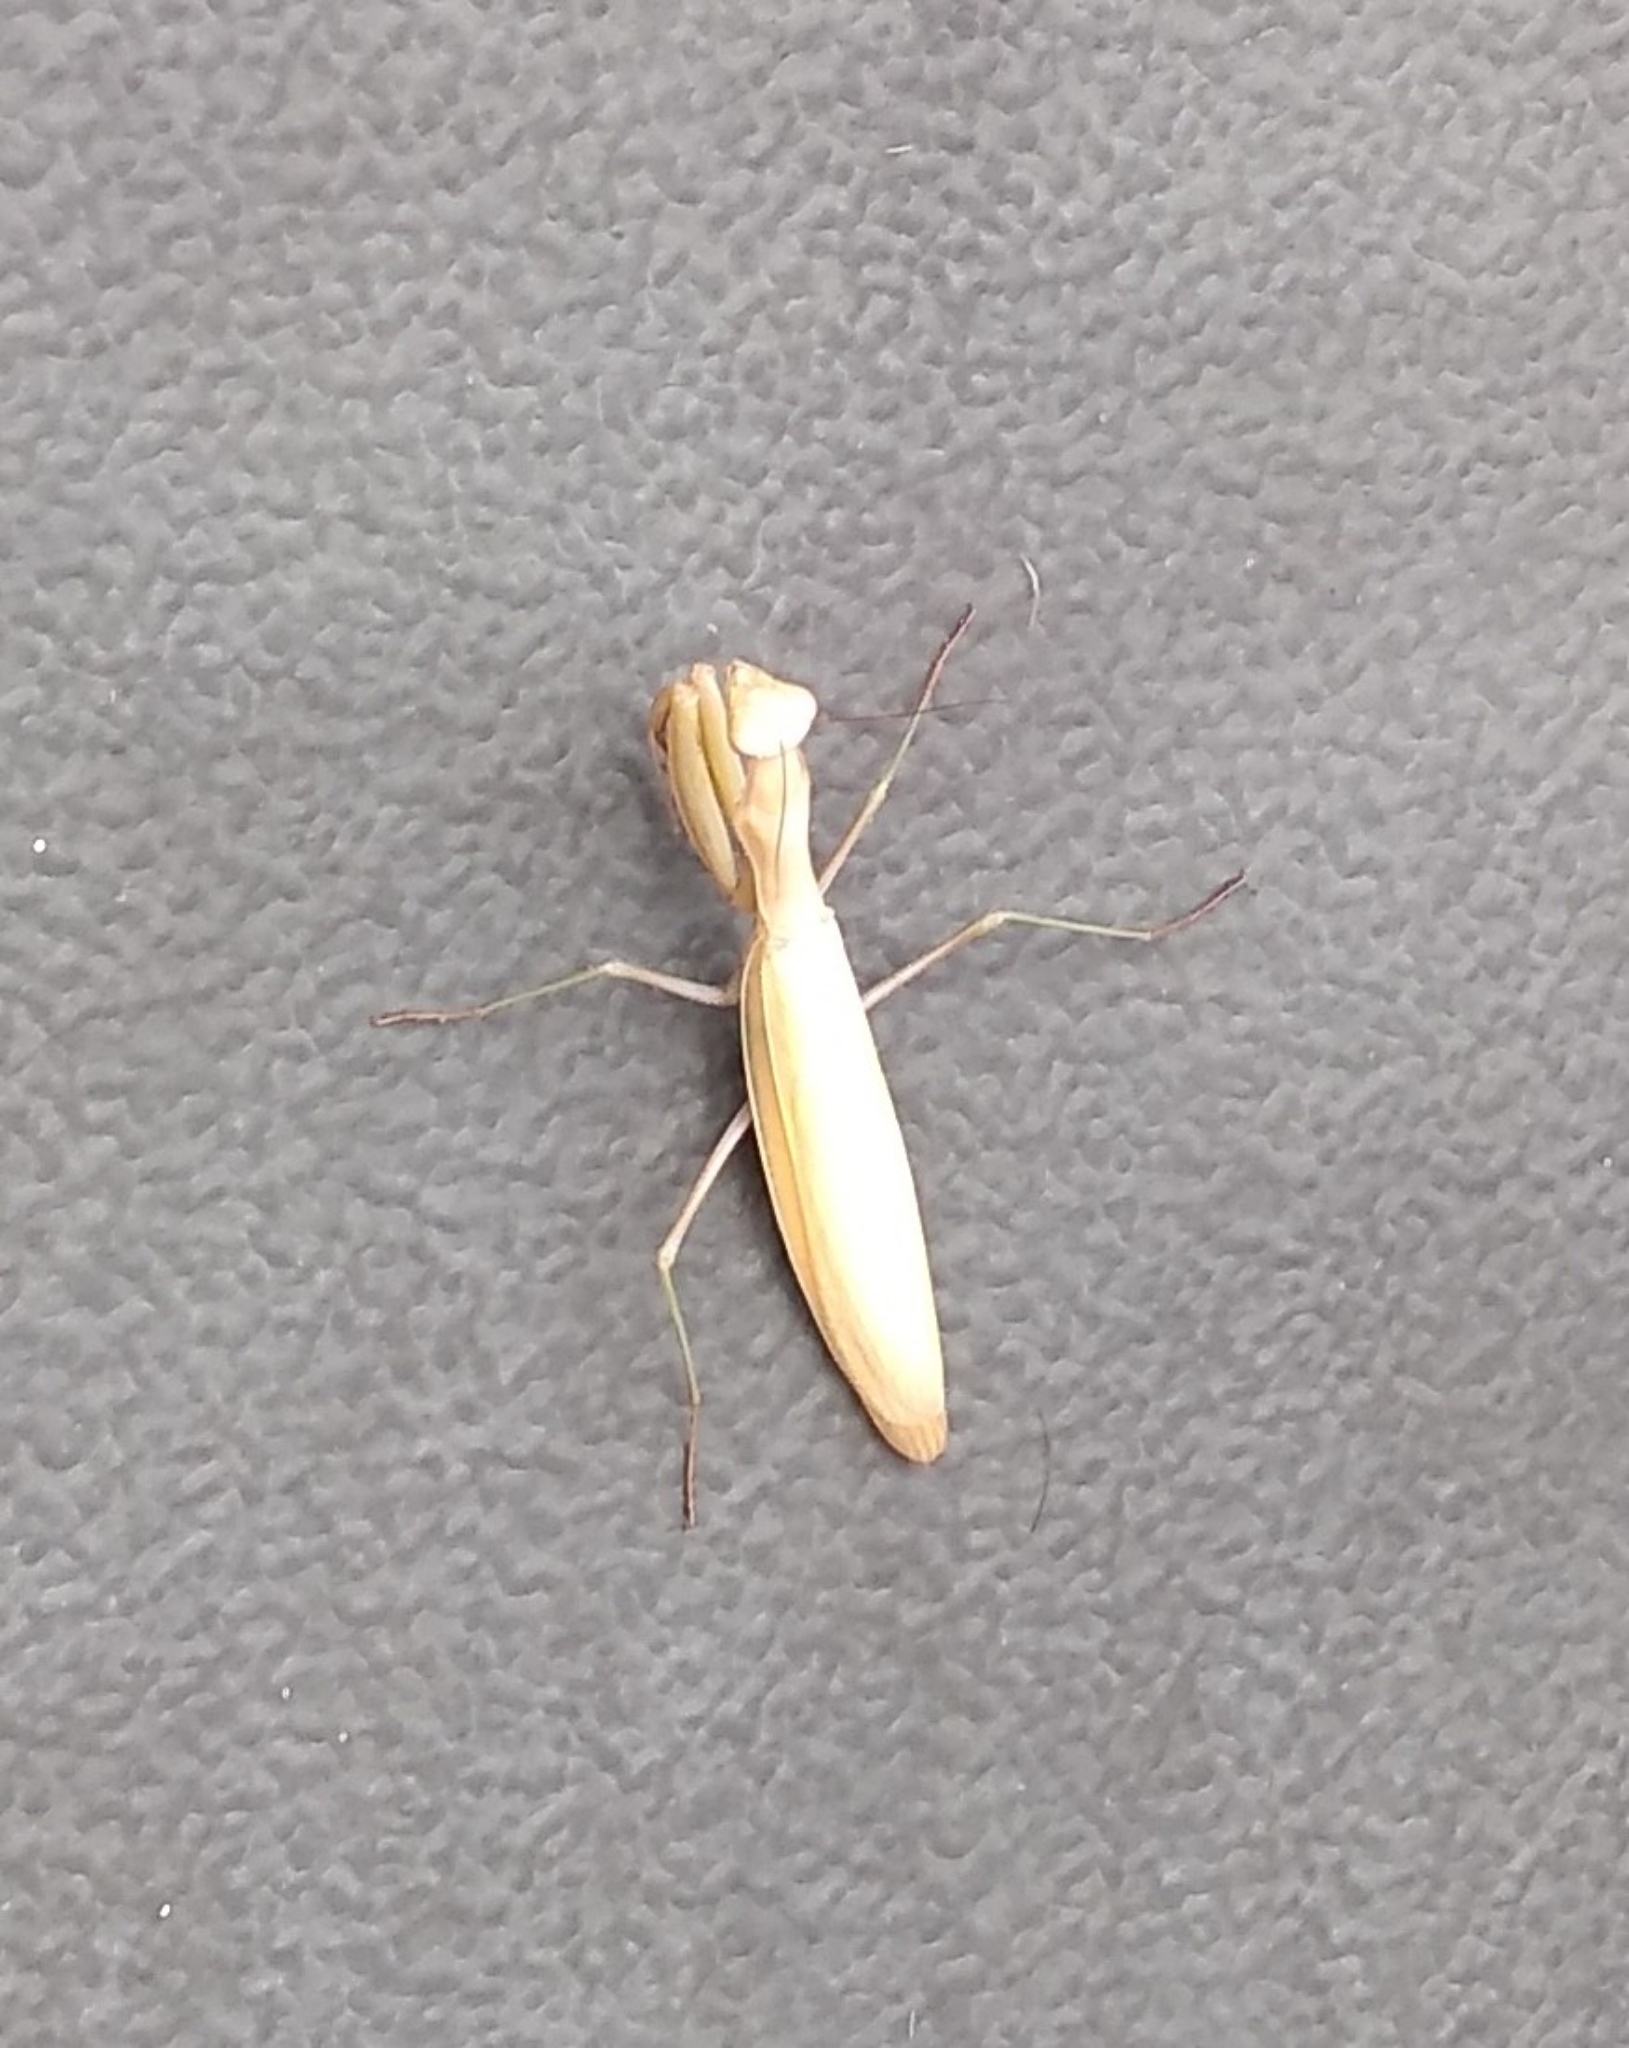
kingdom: Animalia
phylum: Arthropoda
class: Insecta
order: Mantodea
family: Mantidae
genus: Mantis
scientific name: Mantis religiosa
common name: Praying mantis
